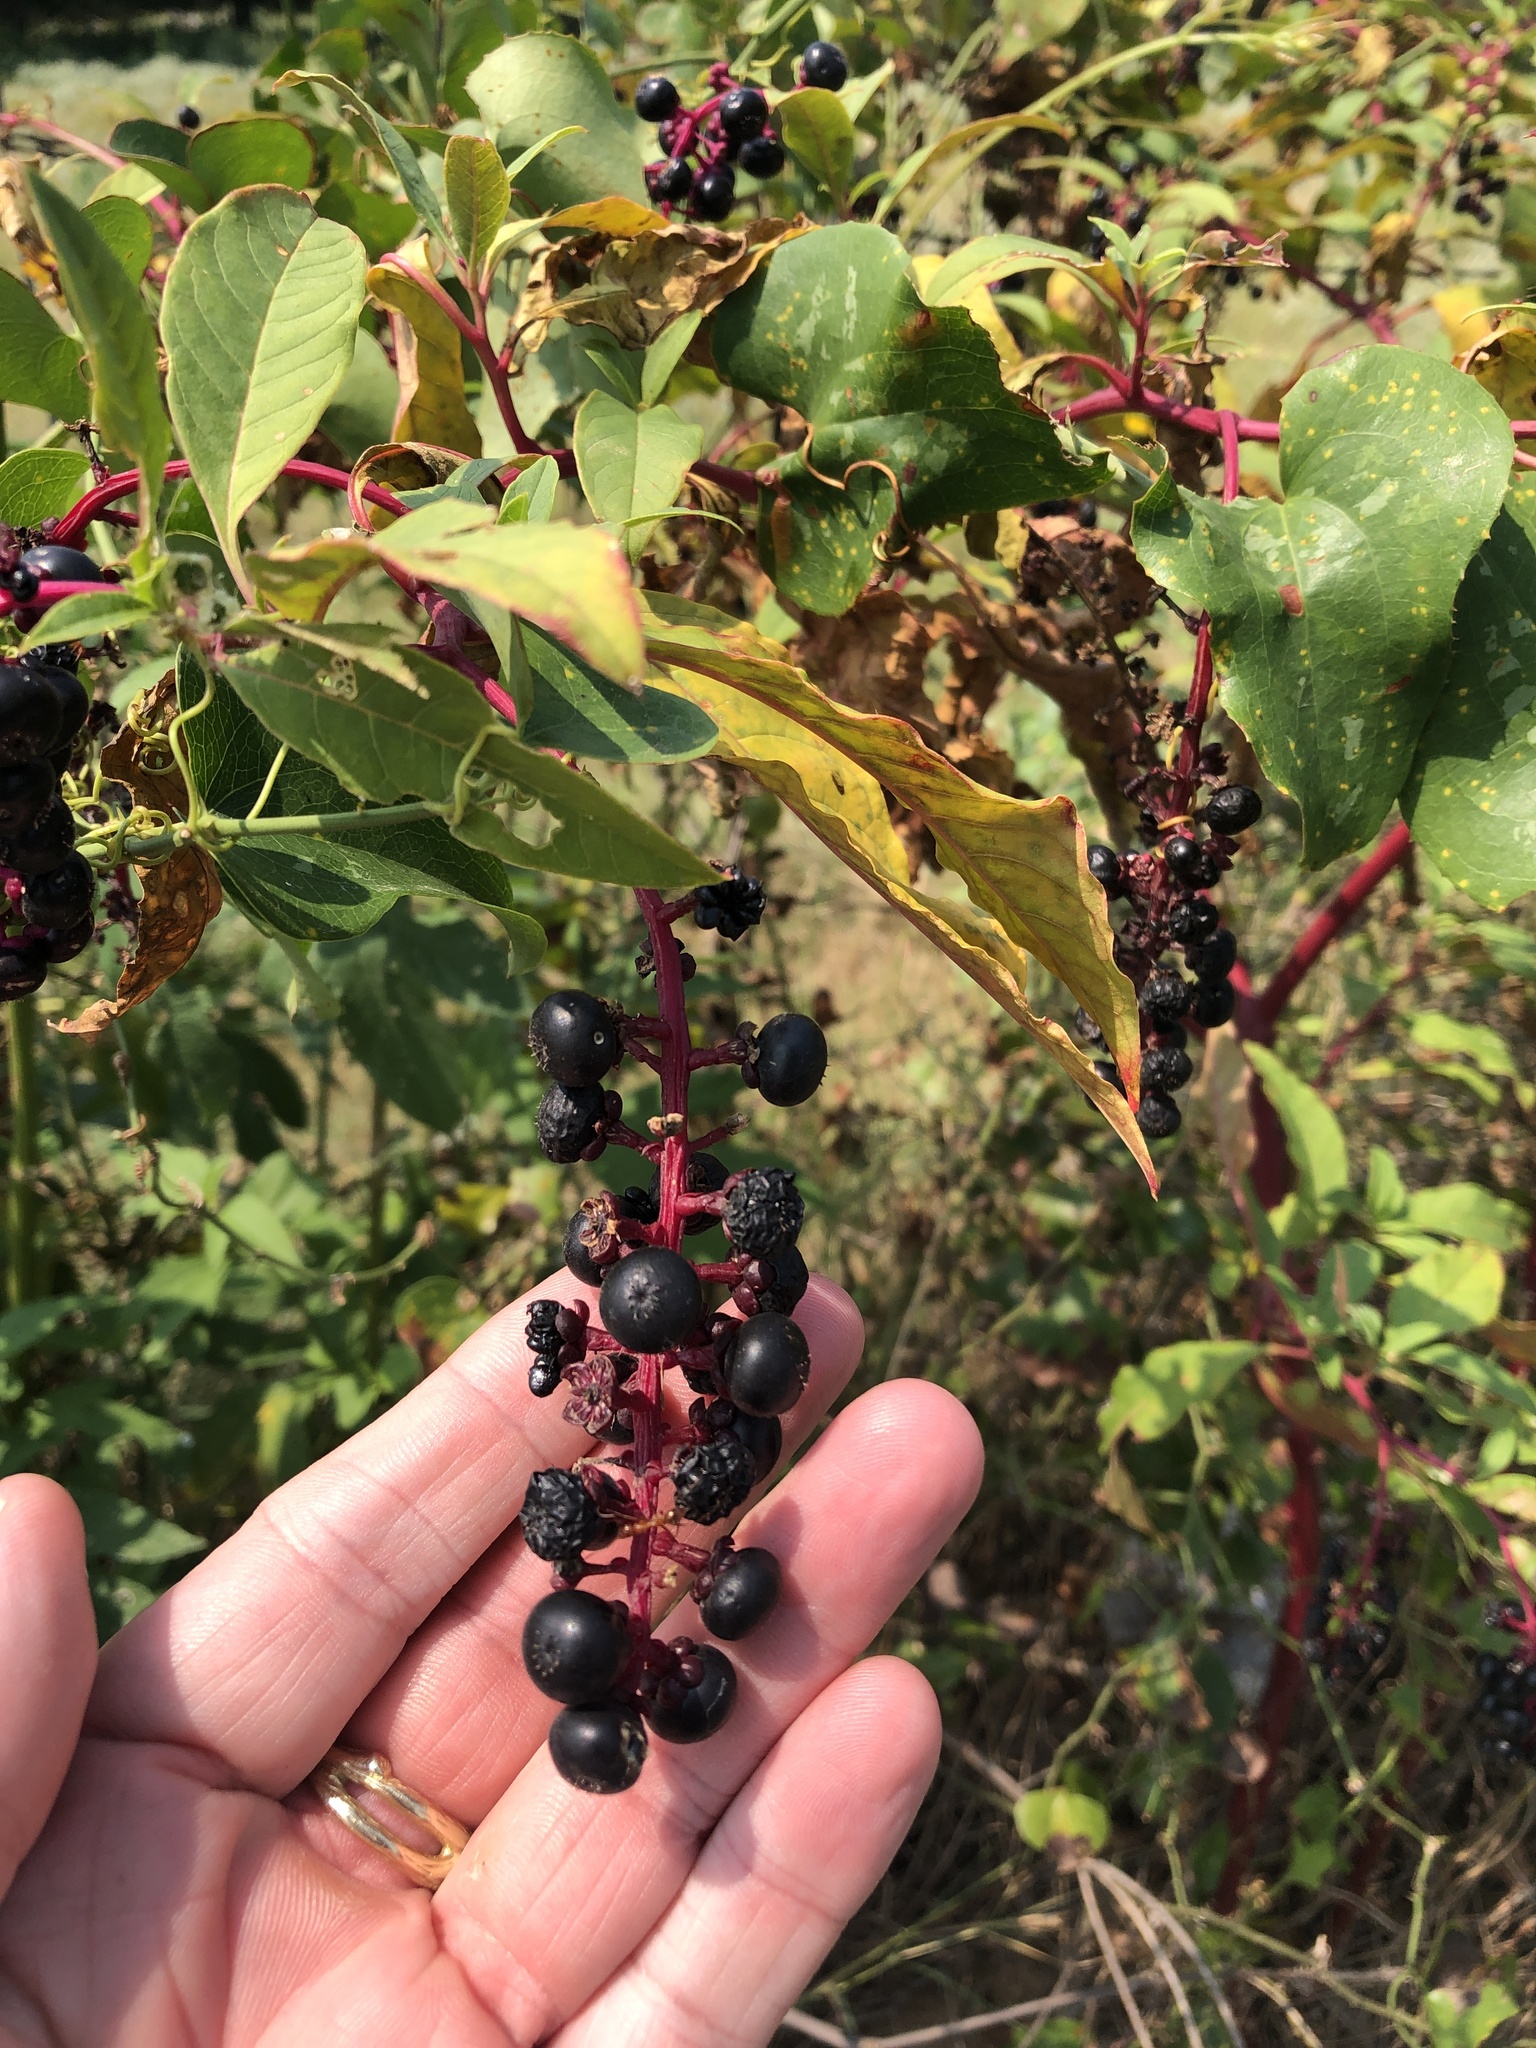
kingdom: Plantae
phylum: Tracheophyta
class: Magnoliopsida
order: Caryophyllales
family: Phytolaccaceae
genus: Phytolacca
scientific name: Phytolacca americana
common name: American pokeweed
